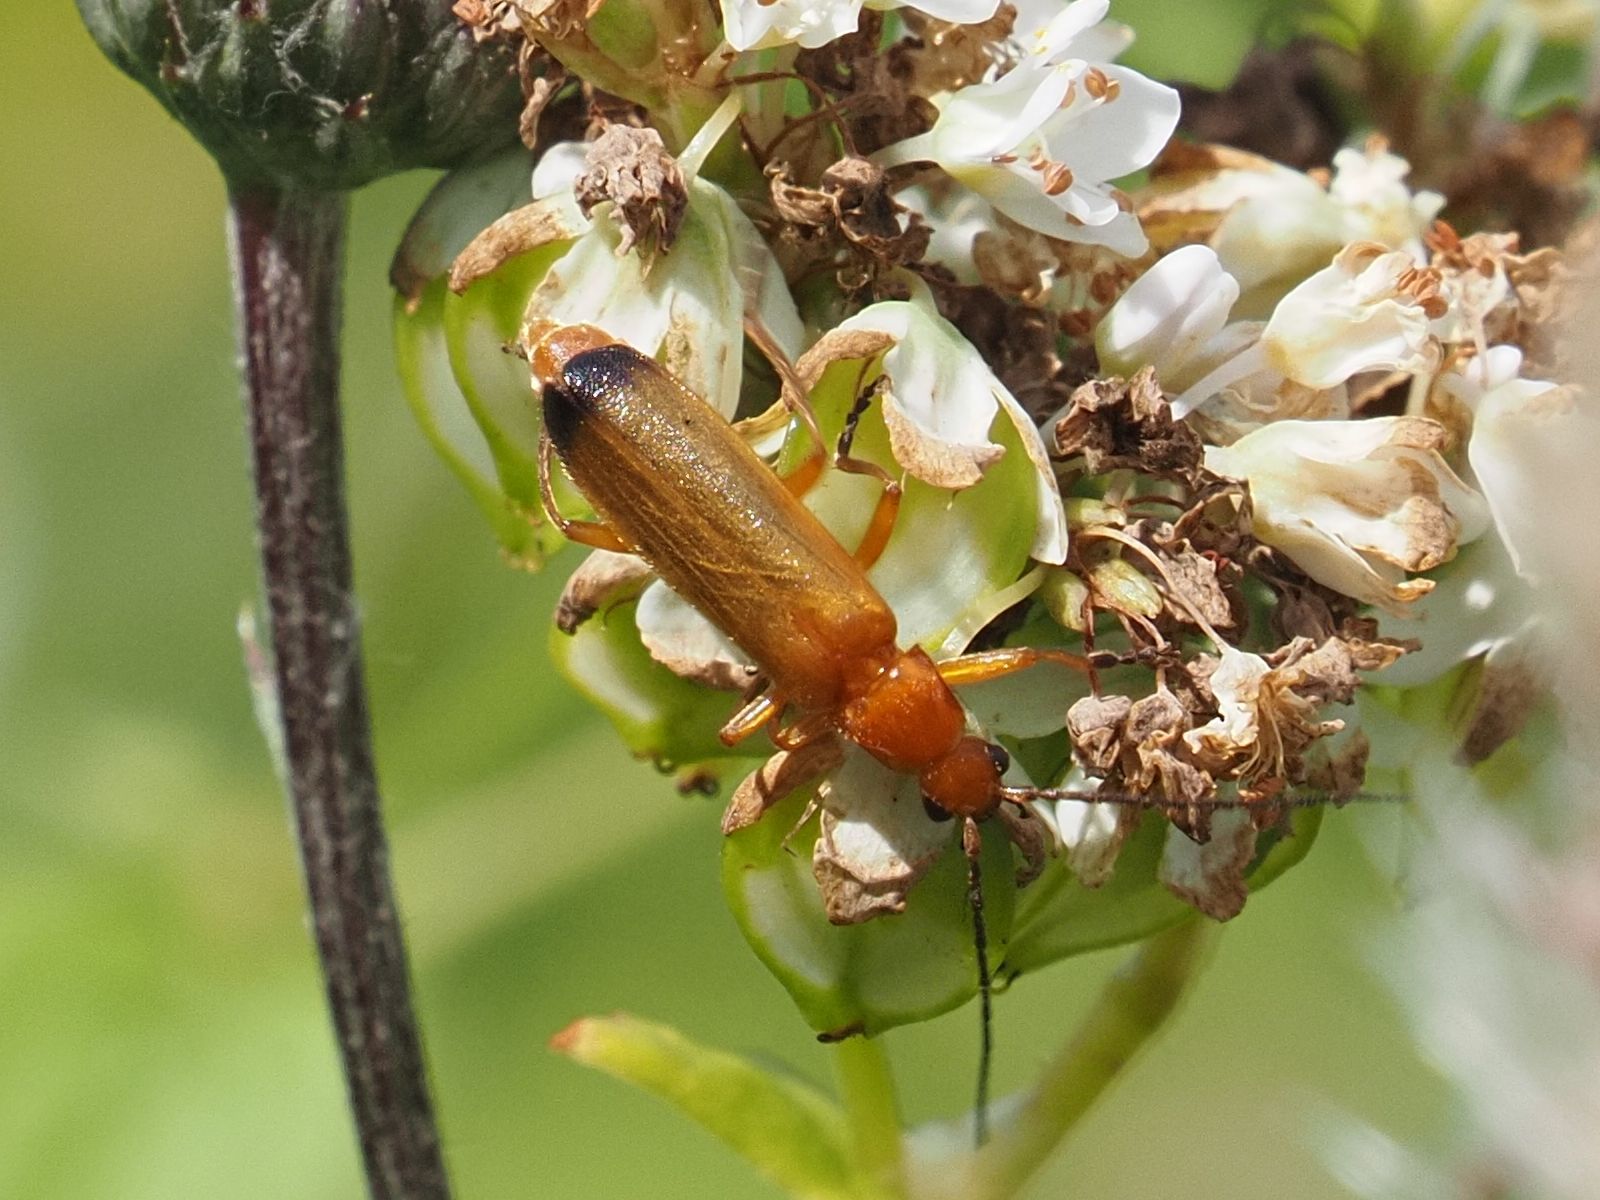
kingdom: Animalia
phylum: Arthropoda
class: Insecta
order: Coleoptera
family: Cantharidae
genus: Rhagonycha
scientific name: Rhagonycha fulva
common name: Common red soldier beetle
